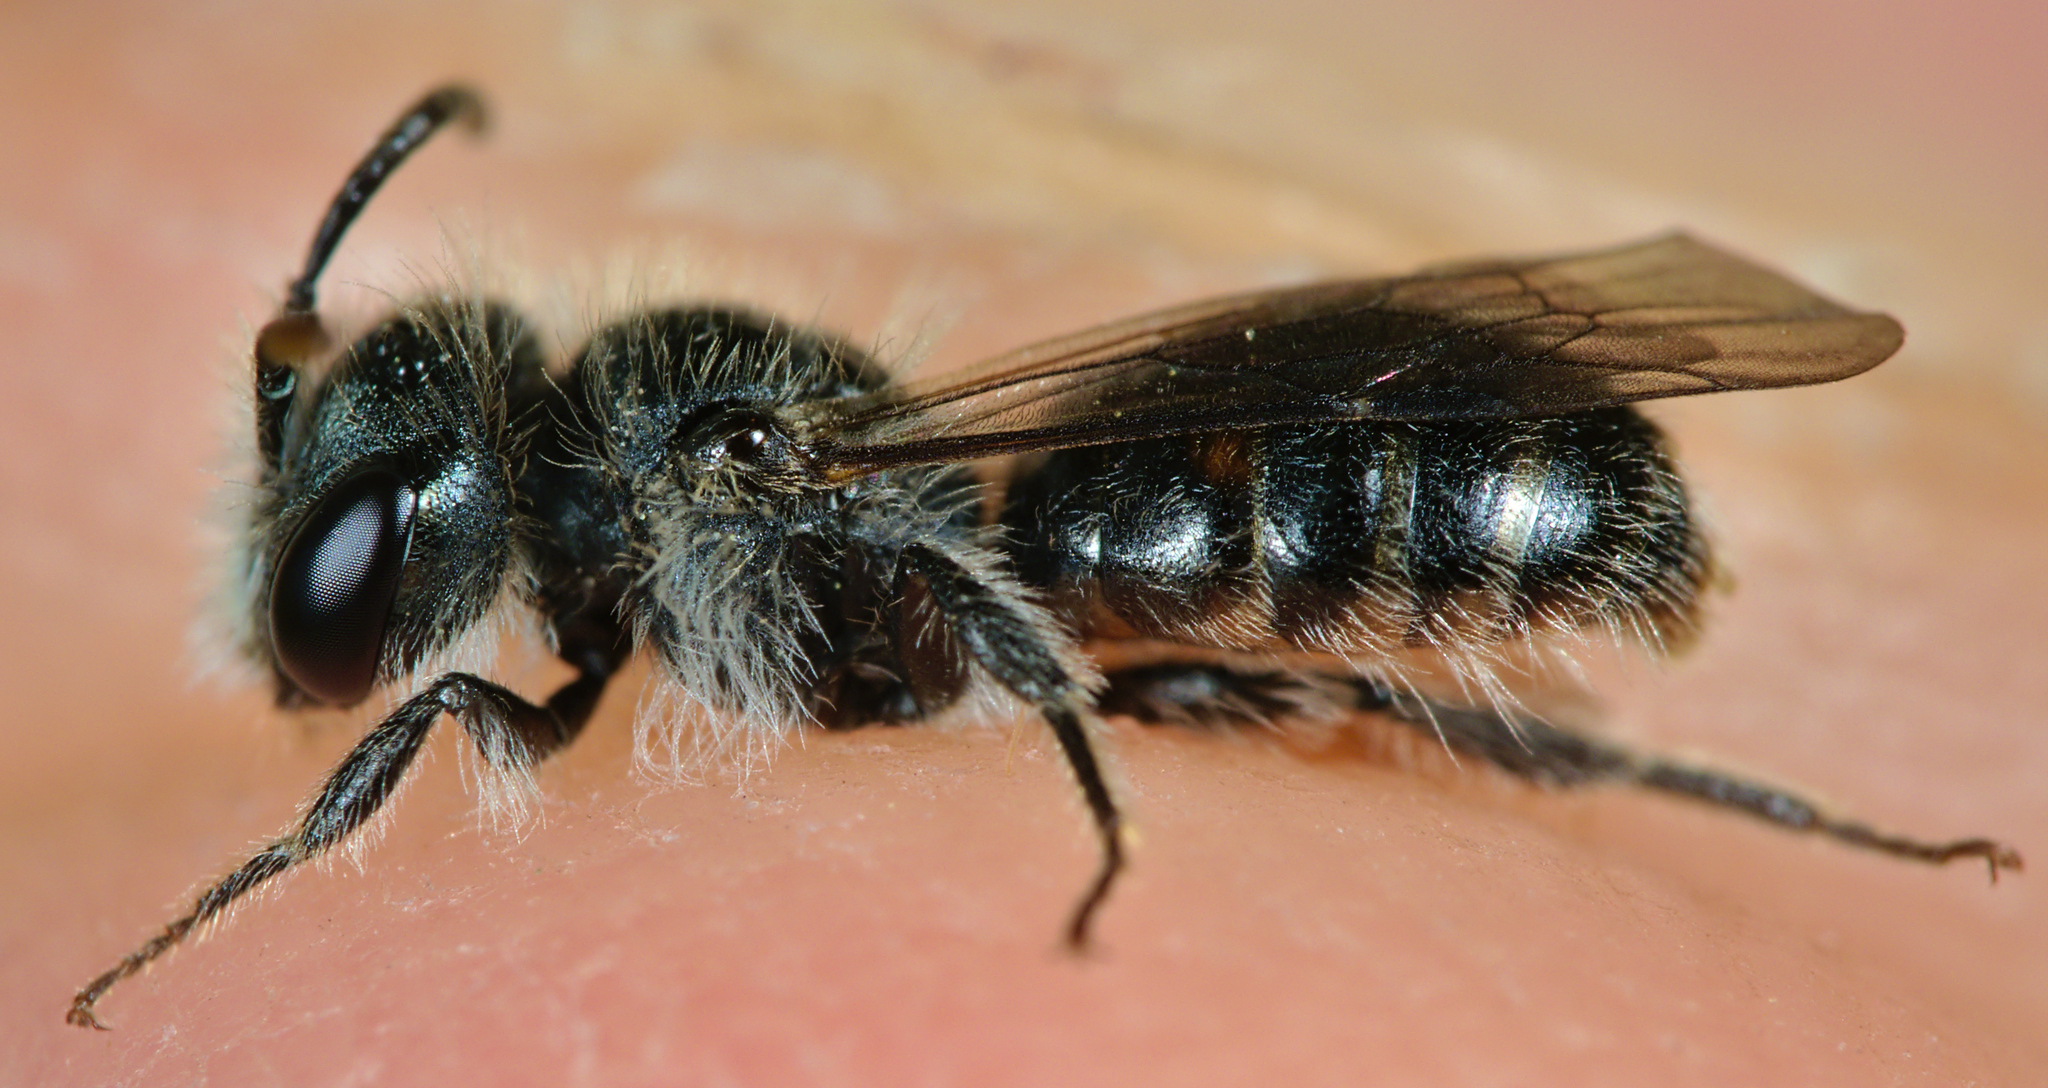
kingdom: Animalia
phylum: Arthropoda
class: Insecta
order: Hymenoptera
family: Andrenidae
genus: Andrena
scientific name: Andrena viridescens
